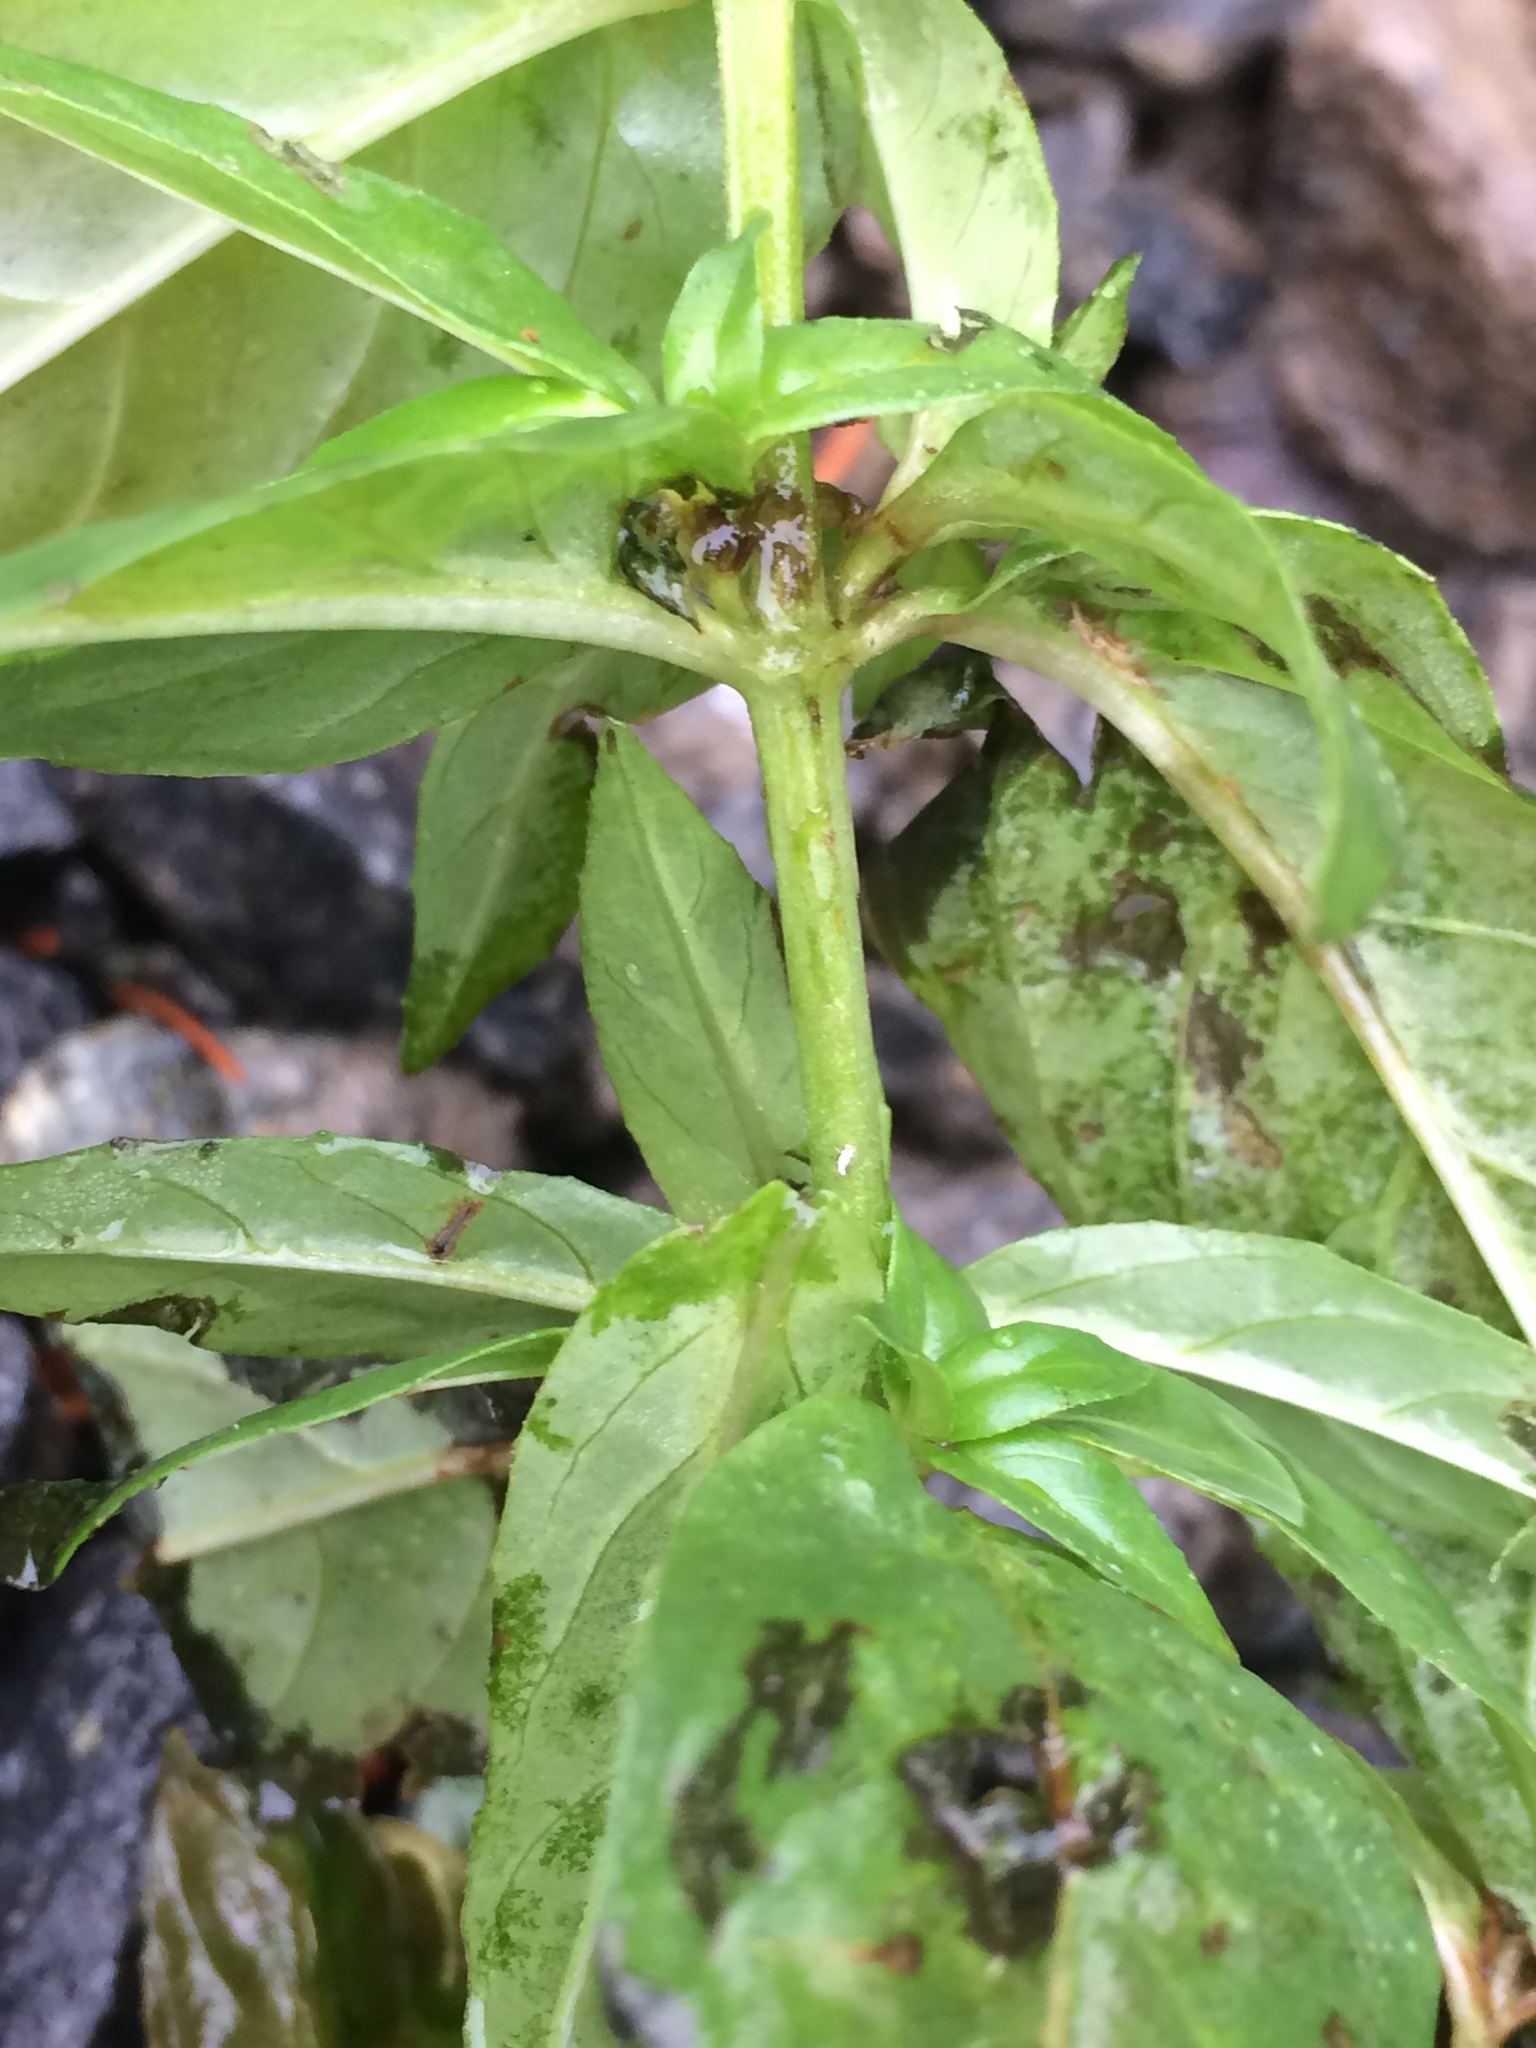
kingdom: Plantae
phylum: Tracheophyta
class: Magnoliopsida
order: Myrtales
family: Onagraceae
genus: Epilobium
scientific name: Epilobium ciliatum
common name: American willowherb
